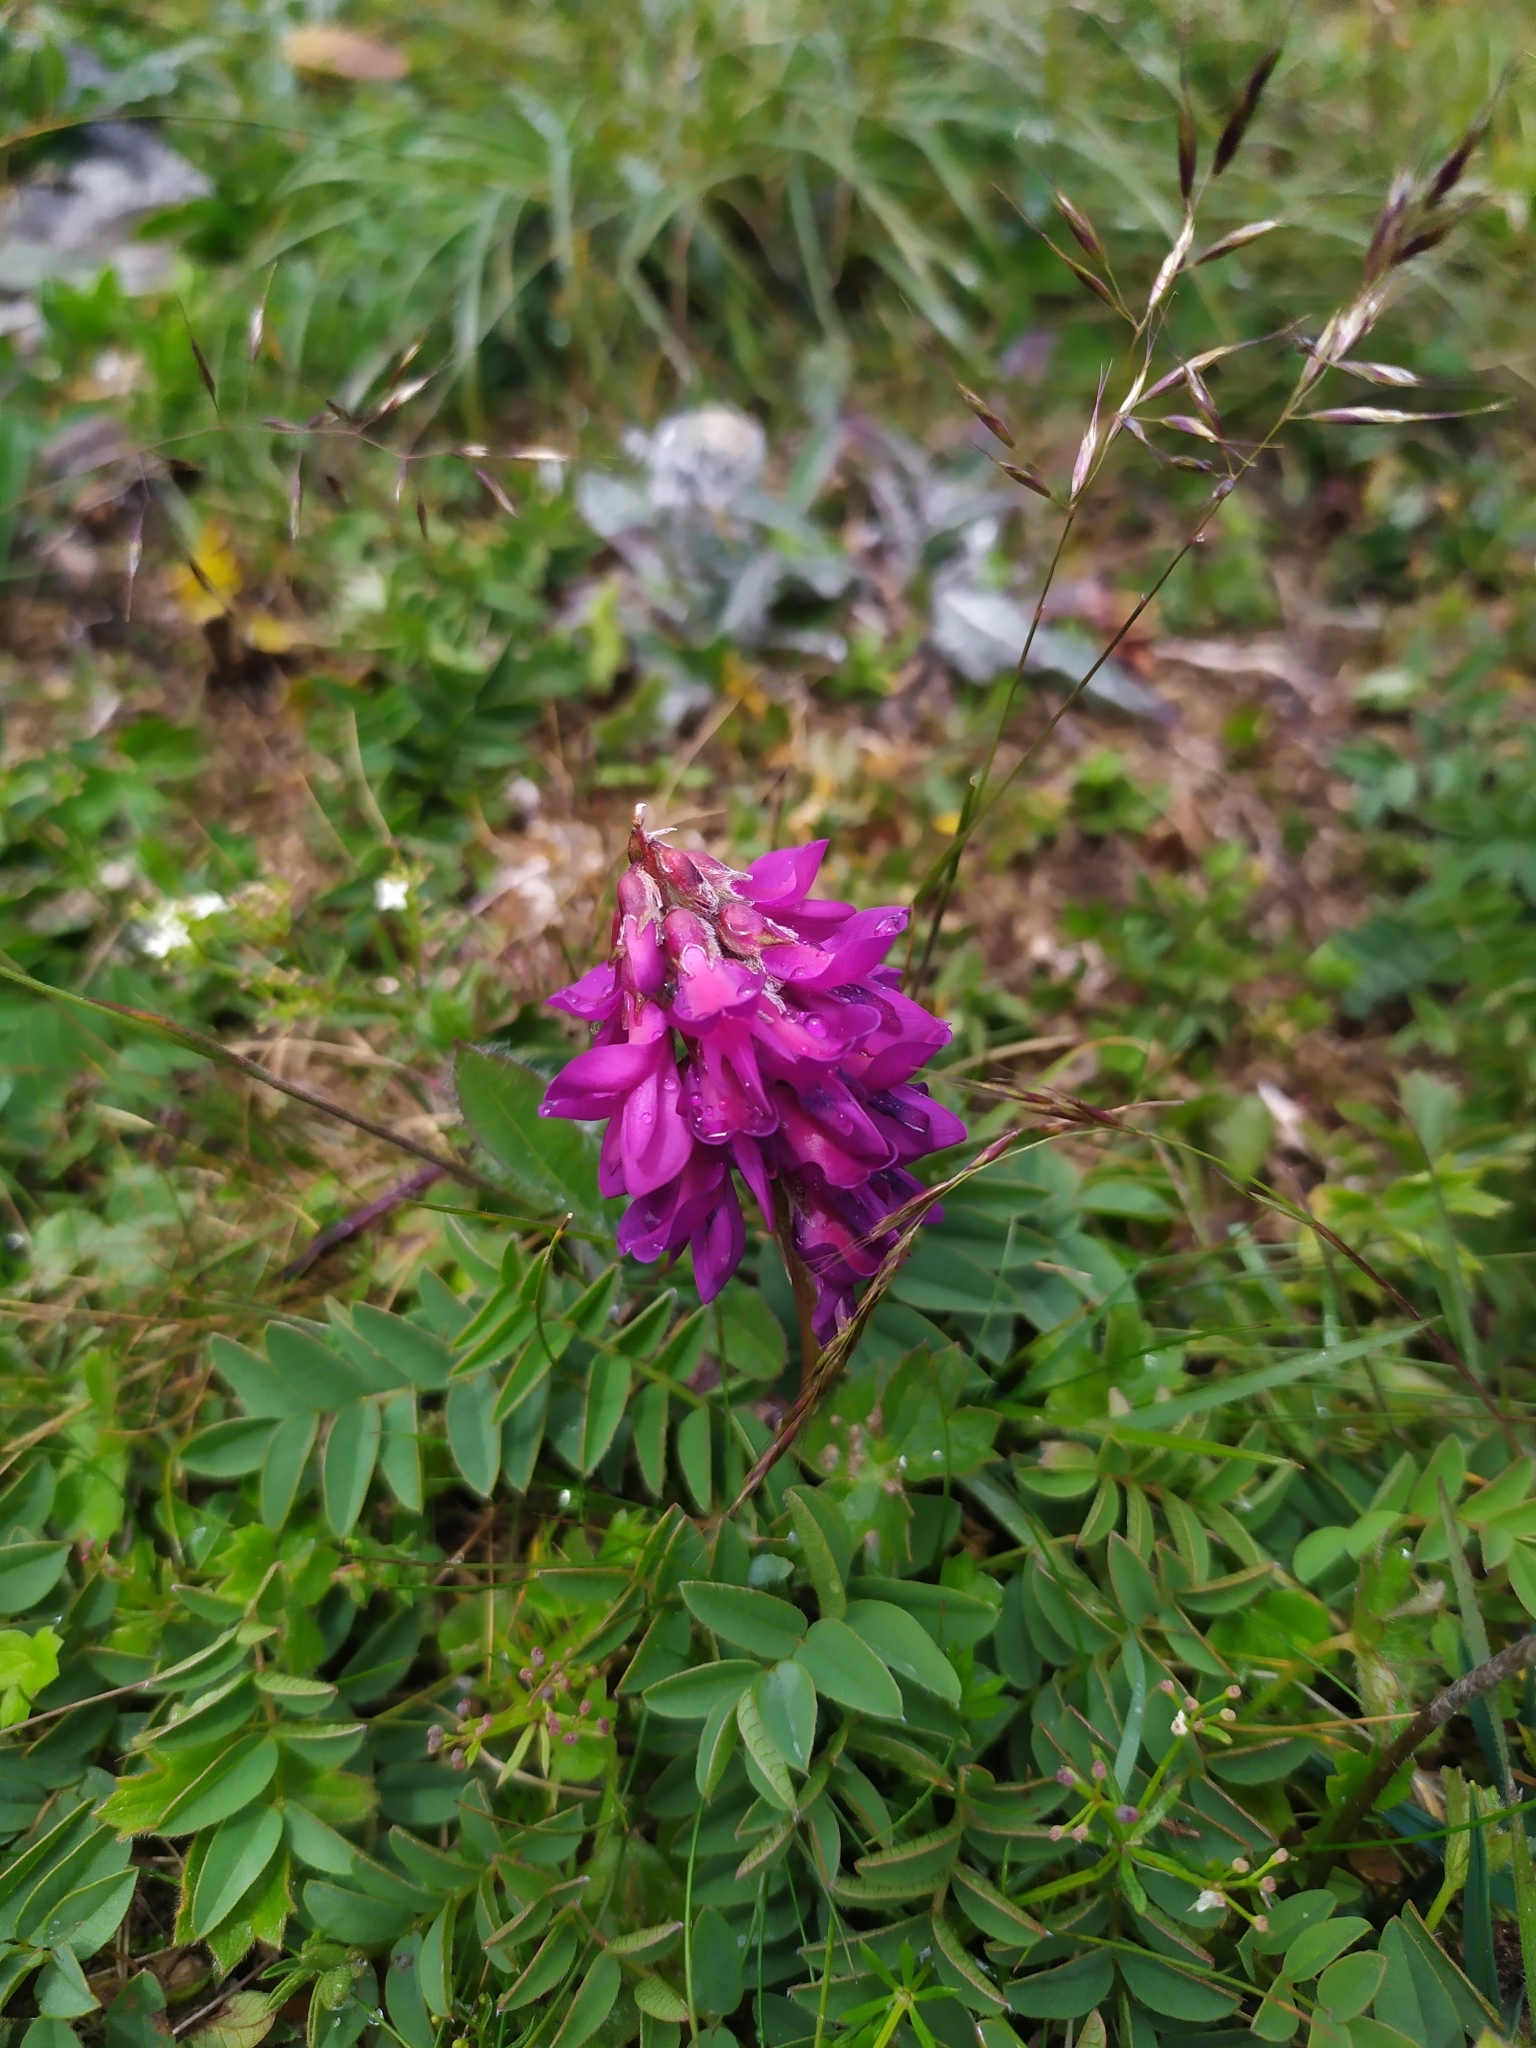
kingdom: Plantae
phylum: Tracheophyta
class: Magnoliopsida
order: Fabales
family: Fabaceae
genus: Hedysarum
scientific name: Hedysarum hedysaroides
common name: Alpine french-honeysuckle
